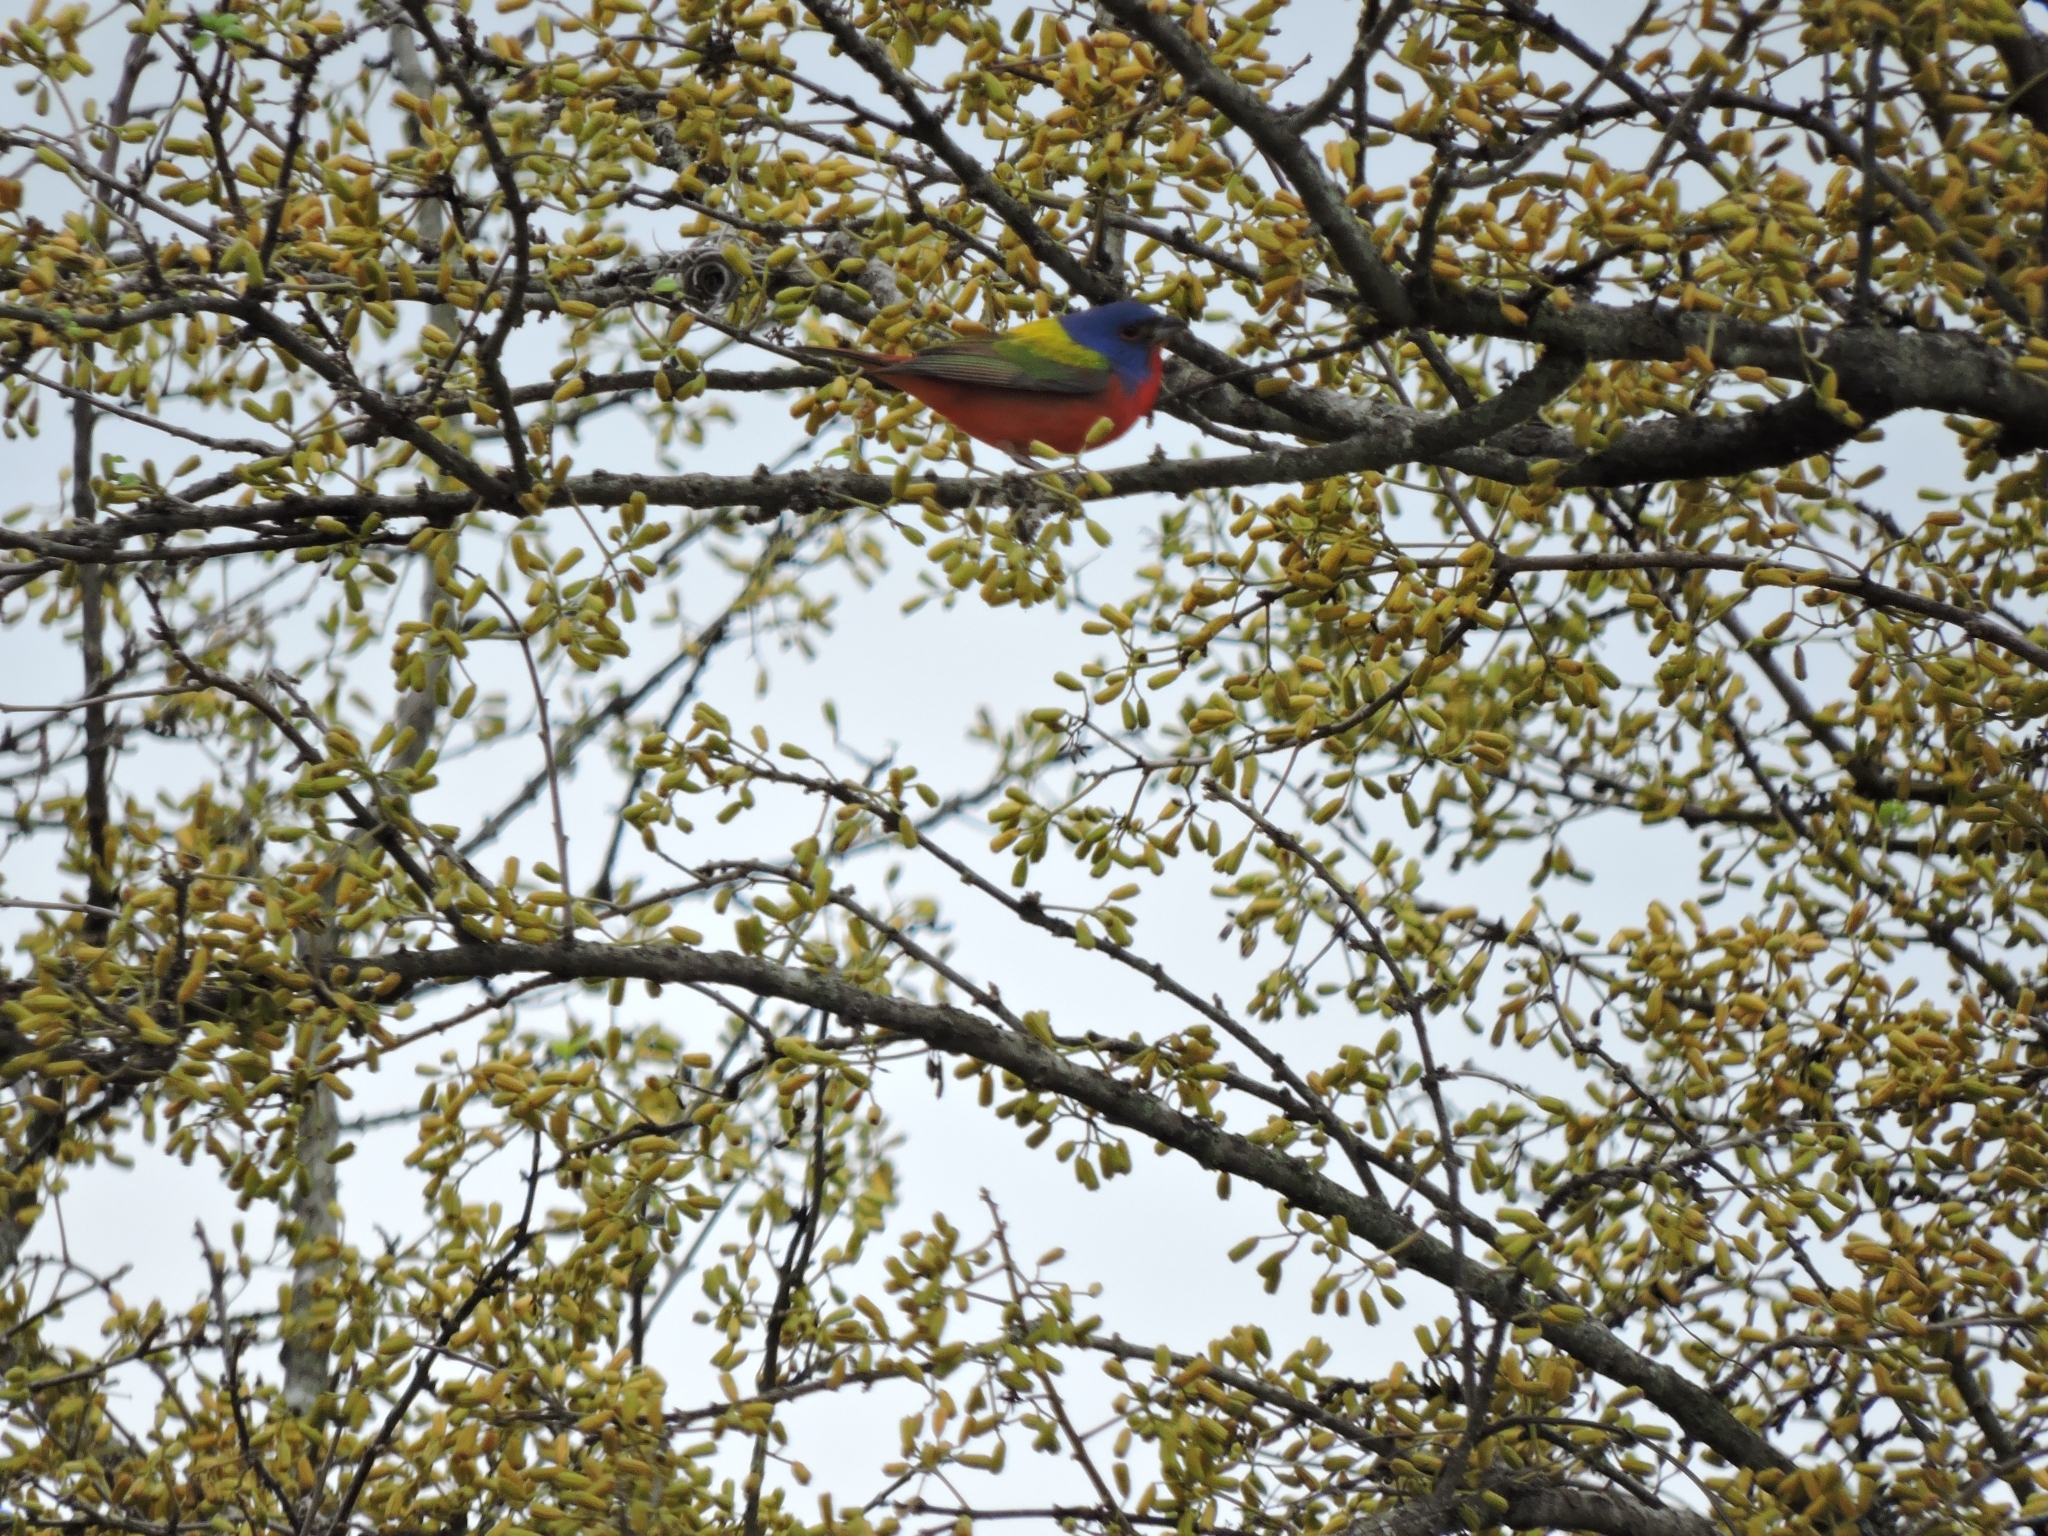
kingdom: Animalia
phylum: Chordata
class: Aves
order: Passeriformes
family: Cardinalidae
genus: Passerina
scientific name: Passerina ciris
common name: Painted bunting
